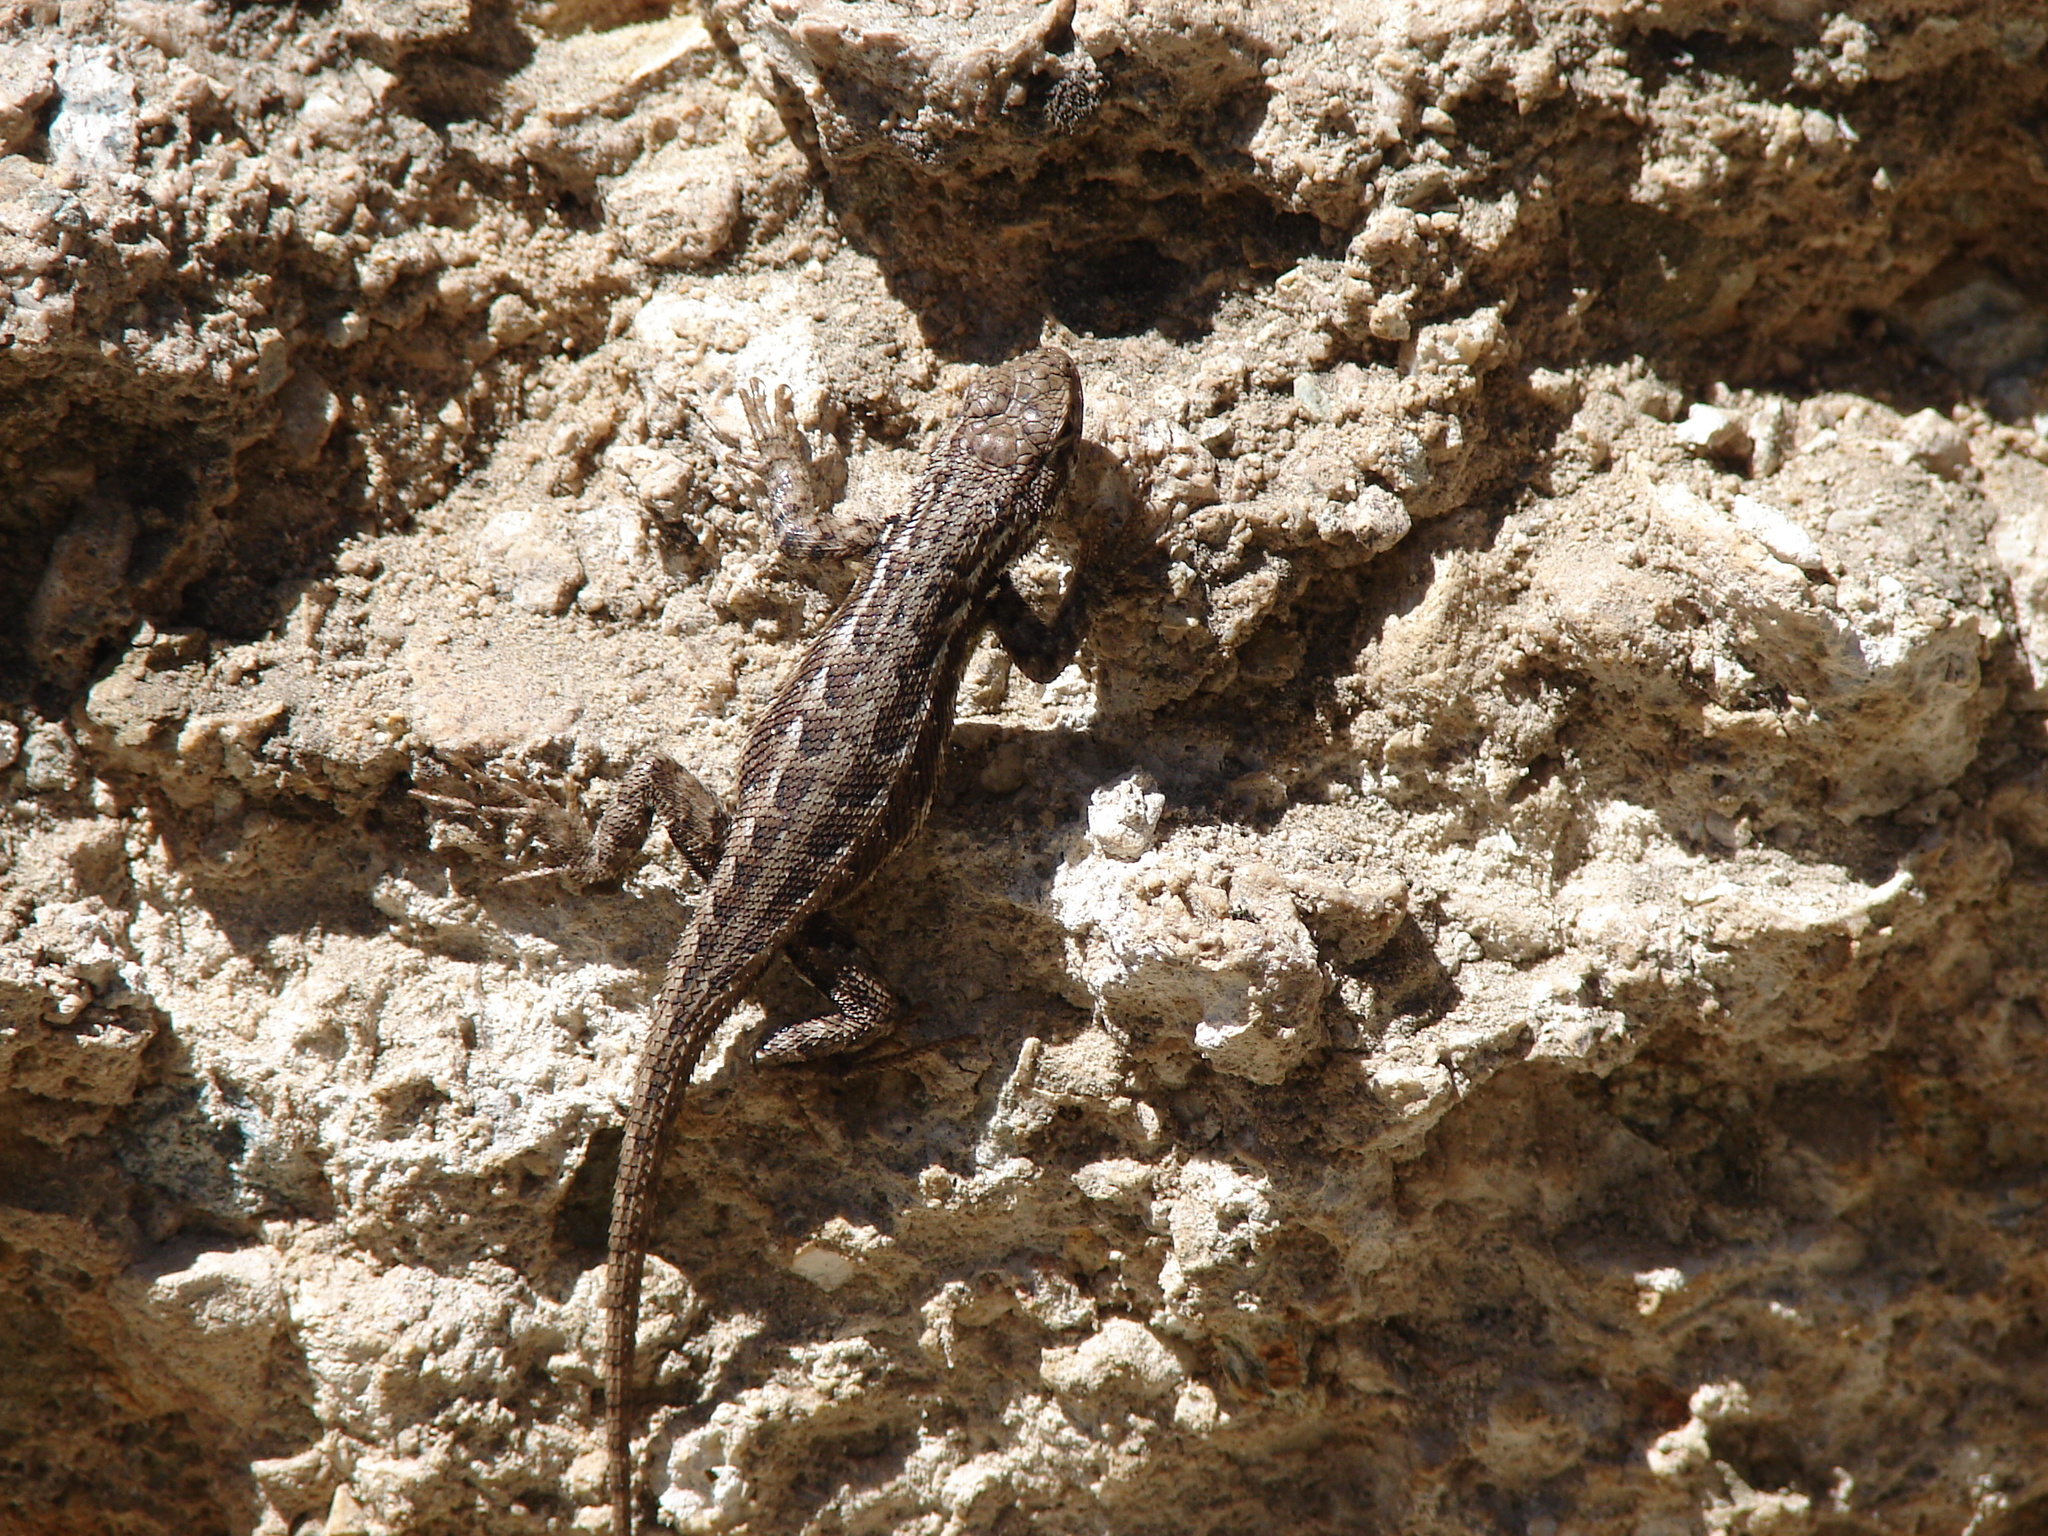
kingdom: Animalia
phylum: Chordata
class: Squamata
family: Phrynosomatidae
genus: Sceloporus
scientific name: Sceloporus graciosus
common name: Sagebrush lizard
